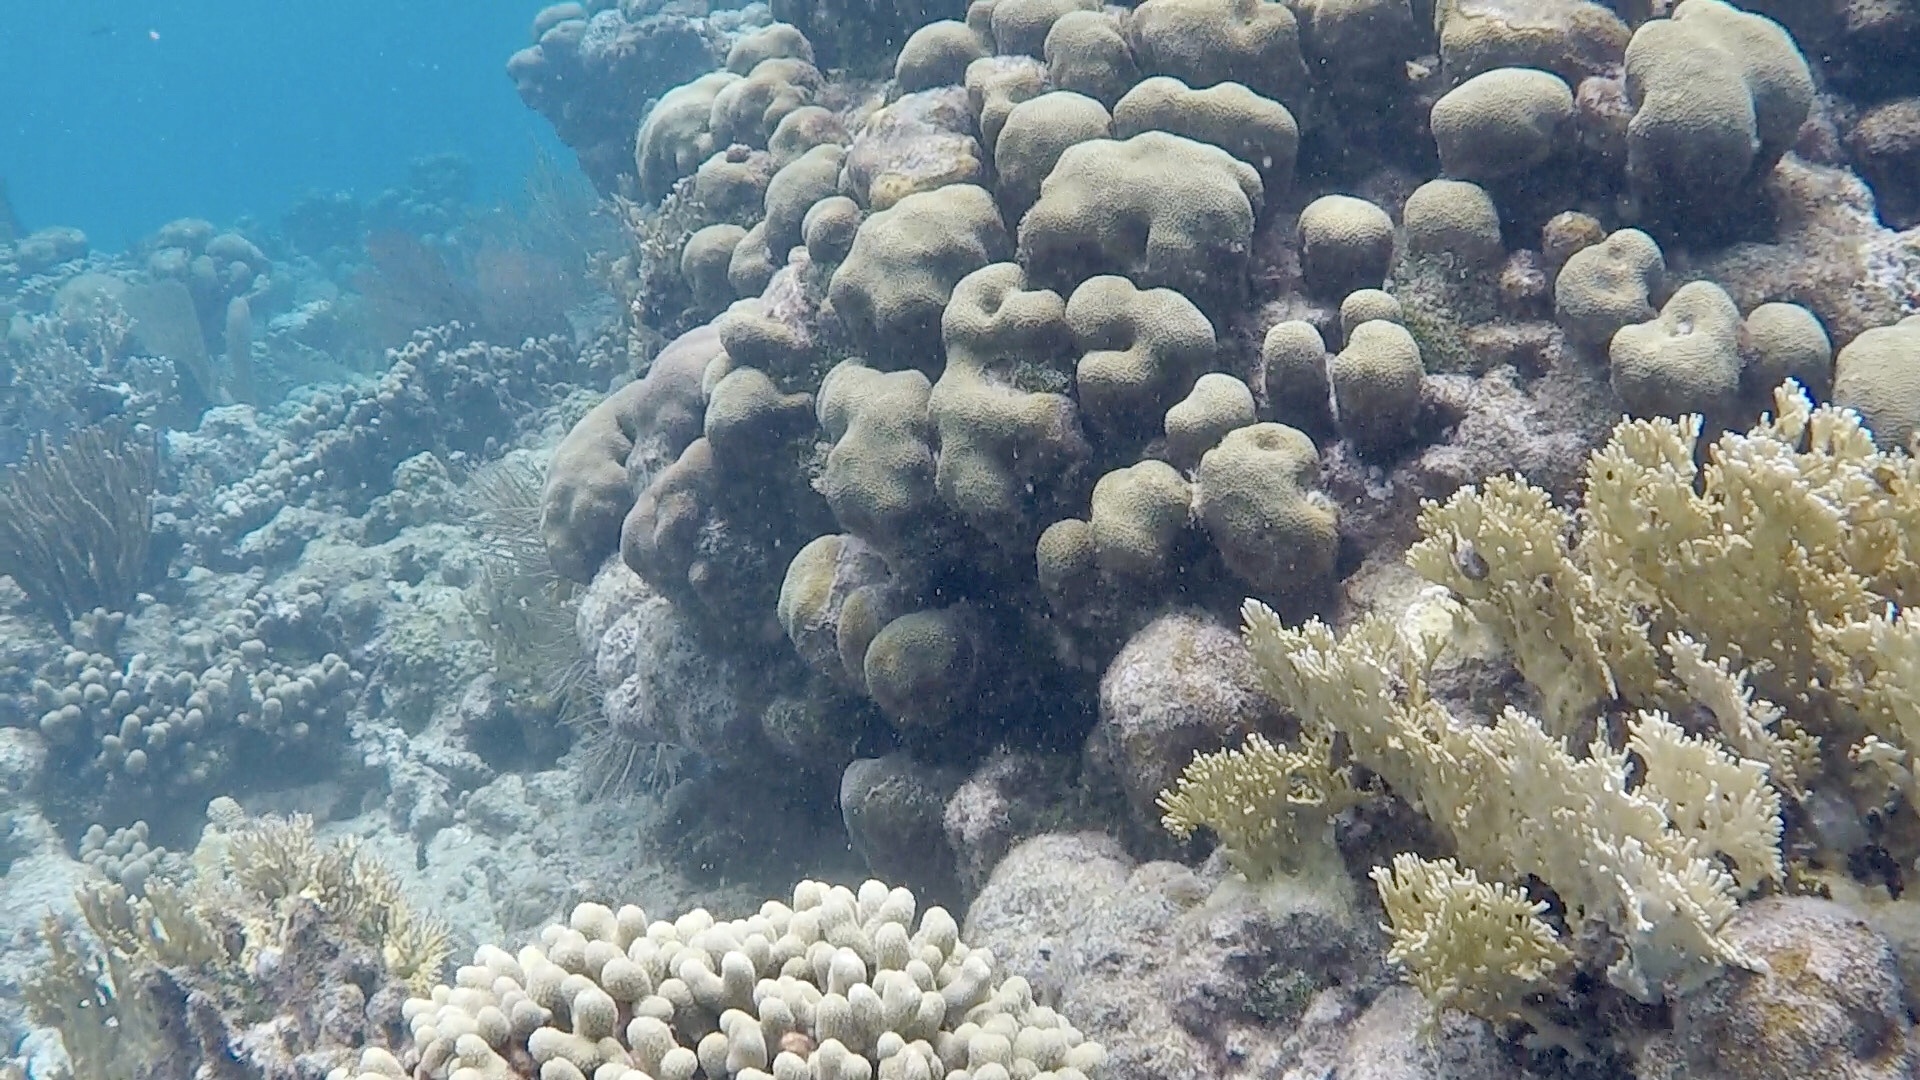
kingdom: Animalia
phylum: Cnidaria
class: Anthozoa
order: Scleractinia
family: Merulinidae
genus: Orbicella
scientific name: Orbicella annularis
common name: Boulder star coral
